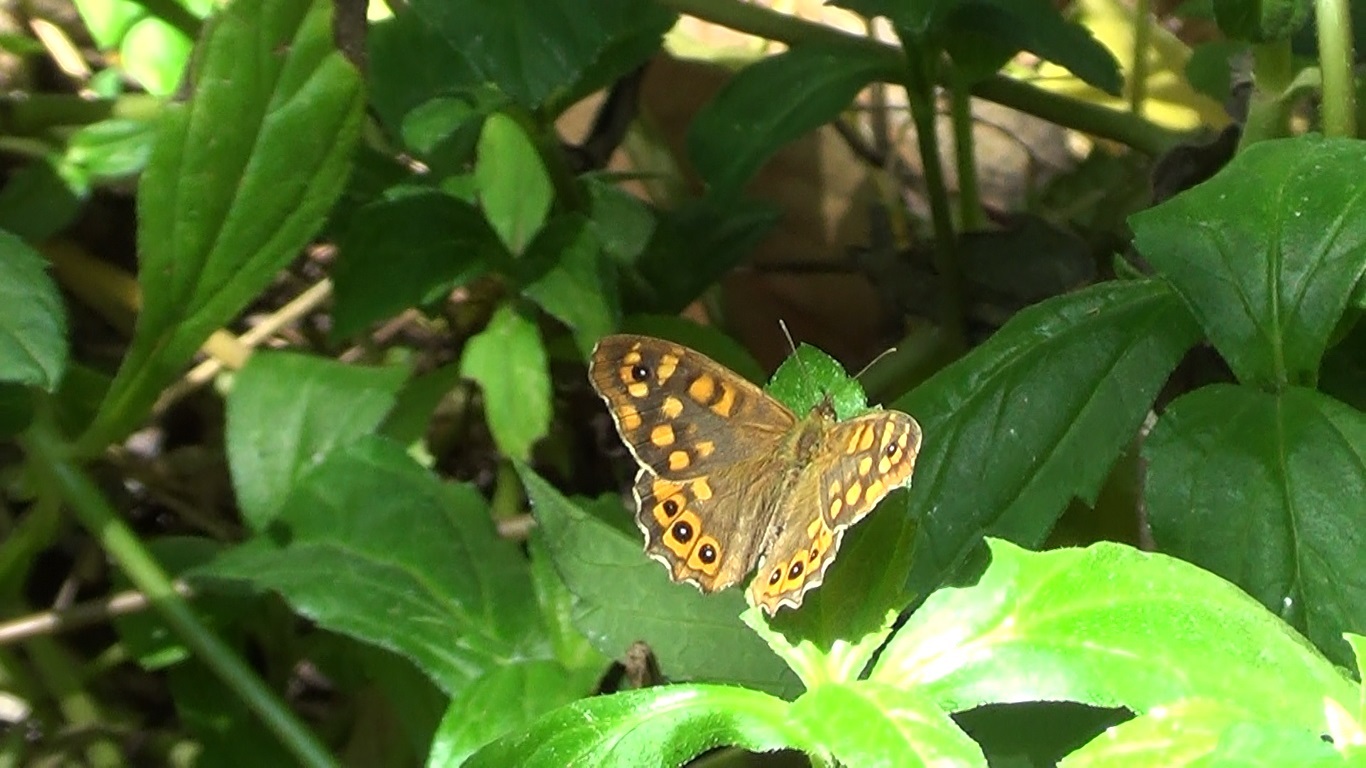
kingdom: Animalia
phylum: Arthropoda
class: Insecta
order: Lepidoptera
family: Nymphalidae
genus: Pararge
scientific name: Pararge aegeria
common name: Speckled wood
